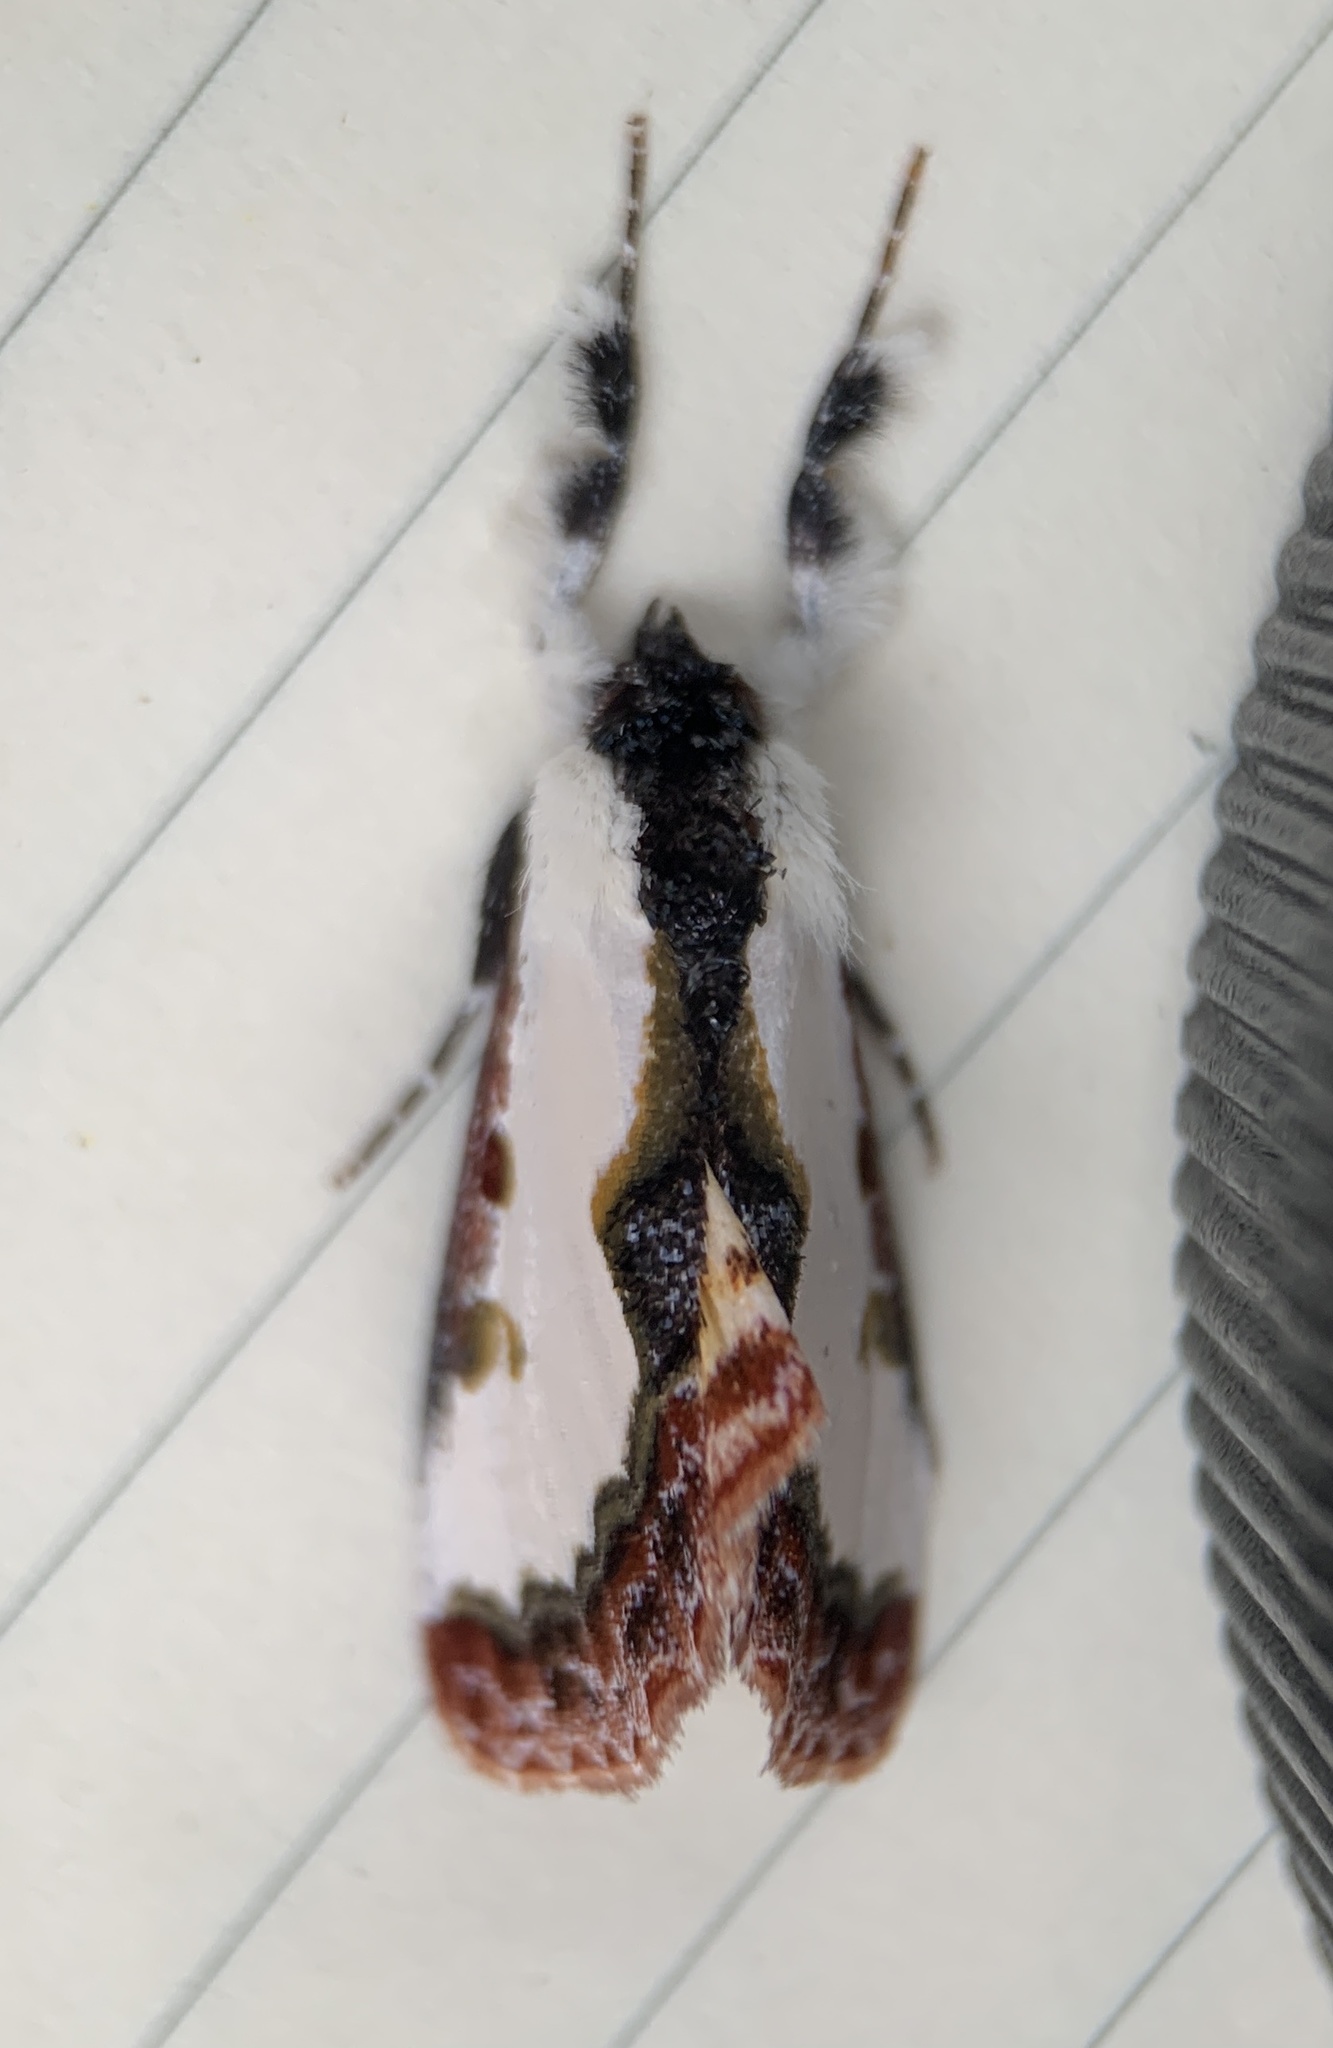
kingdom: Animalia
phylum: Arthropoda
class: Insecta
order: Lepidoptera
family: Noctuidae
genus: Eudryas
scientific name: Eudryas unio
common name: Pearly wood-nymph
